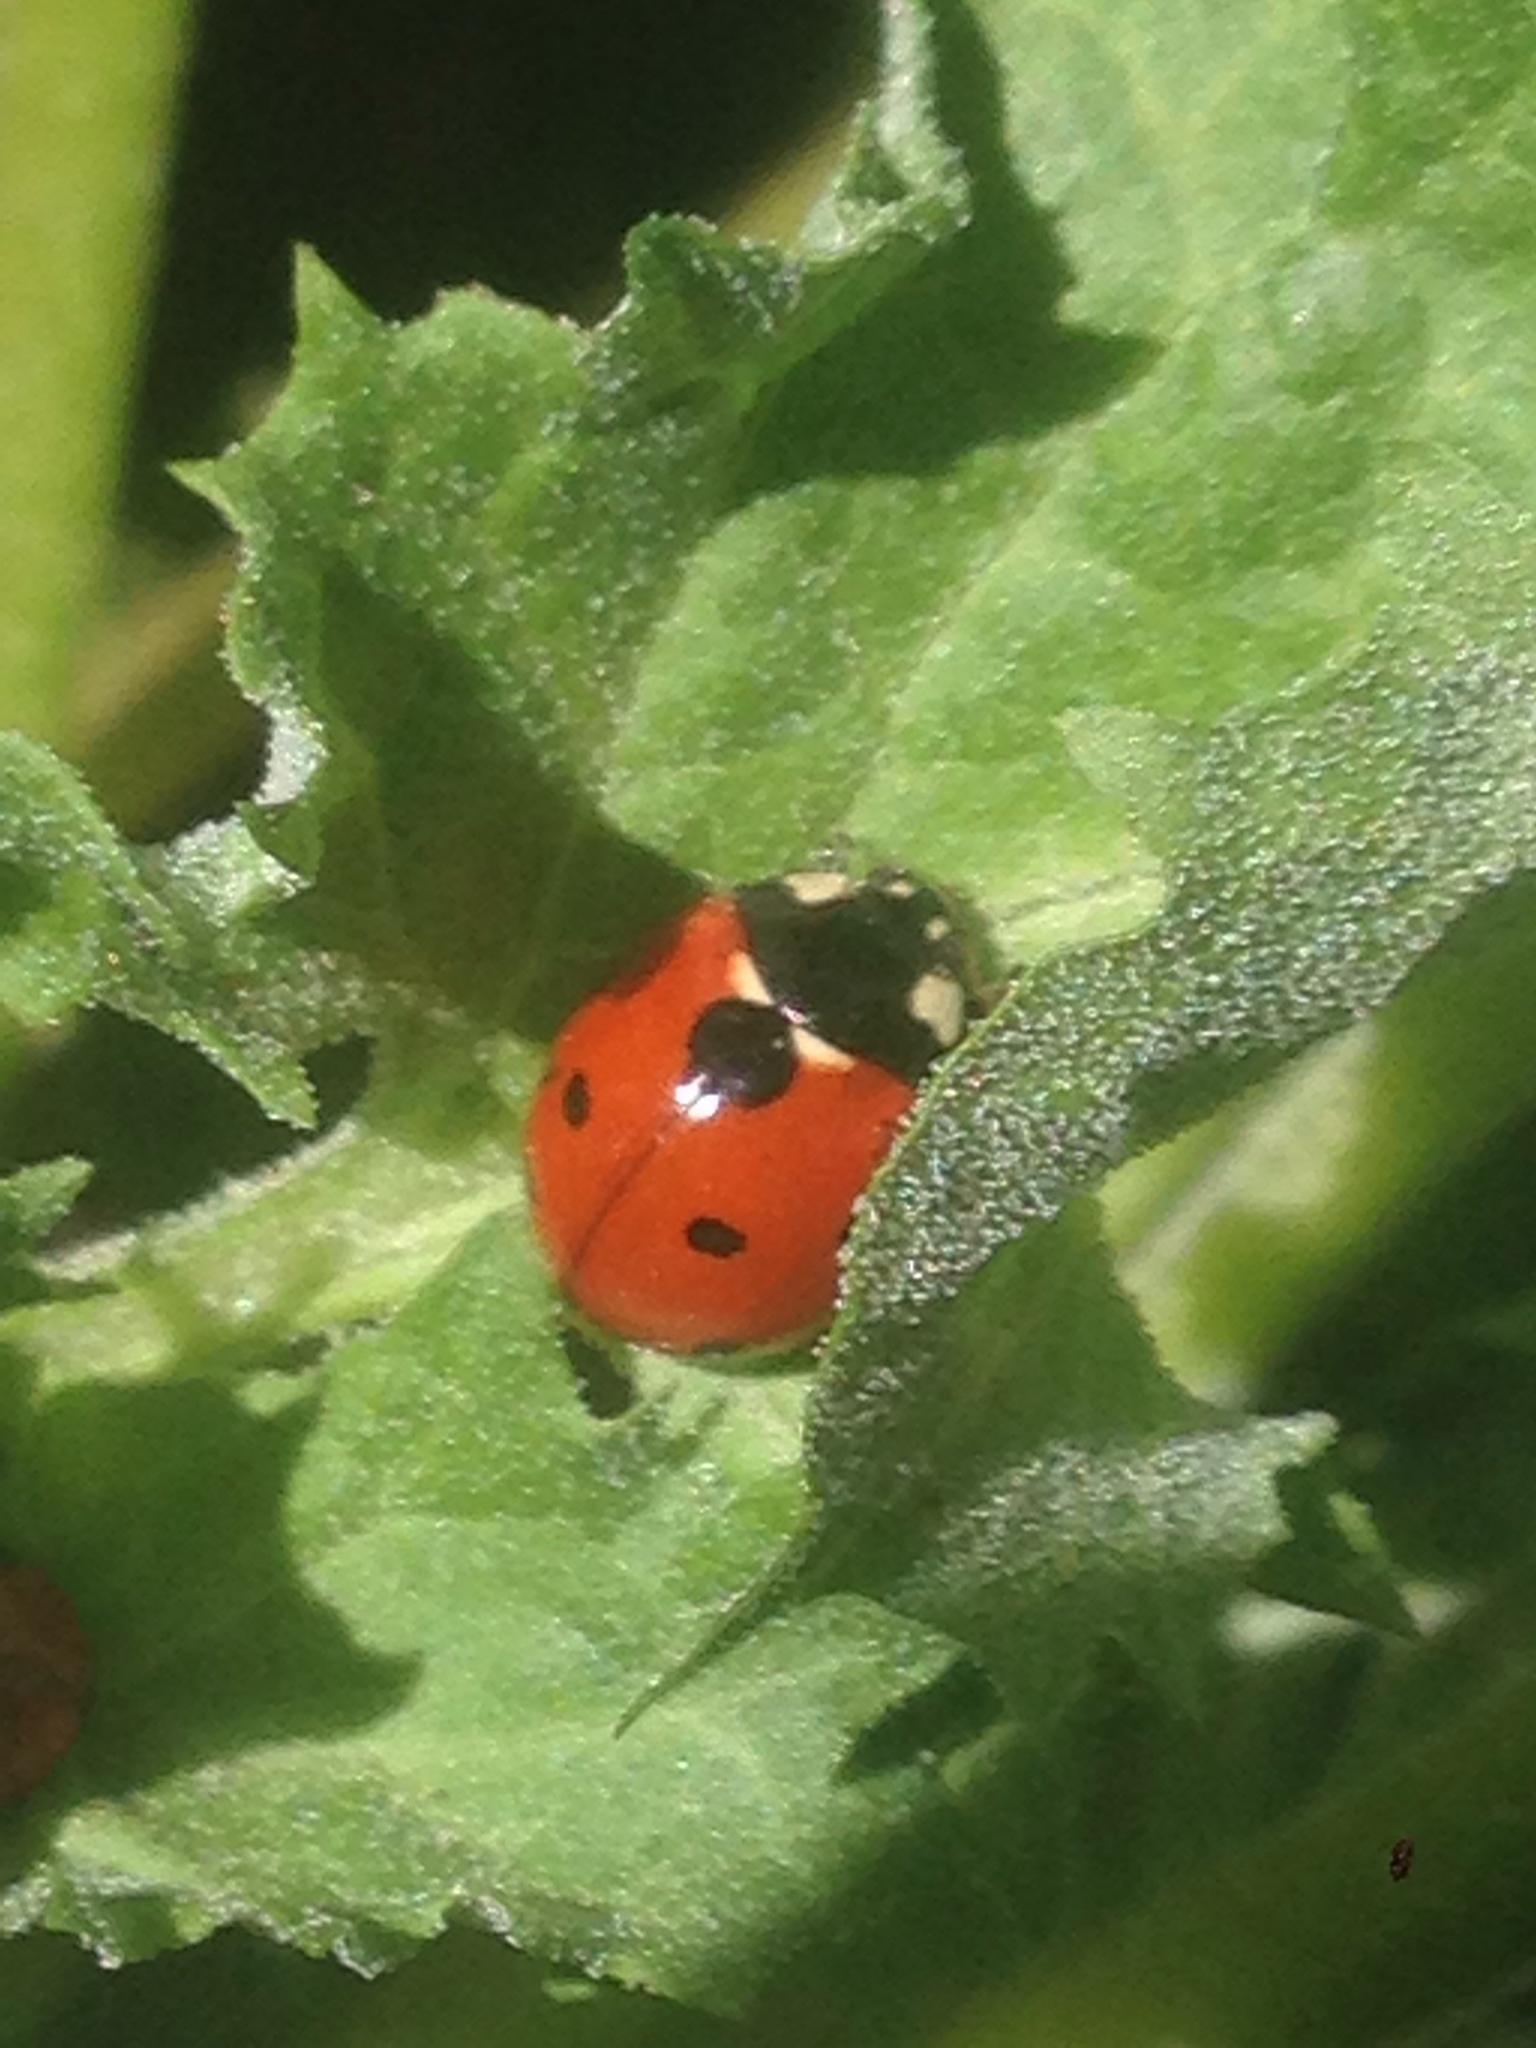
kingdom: Animalia
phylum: Arthropoda
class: Insecta
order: Coleoptera
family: Coccinellidae
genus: Coccinella
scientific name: Coccinella septempunctata
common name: Sevenspotted lady beetle
